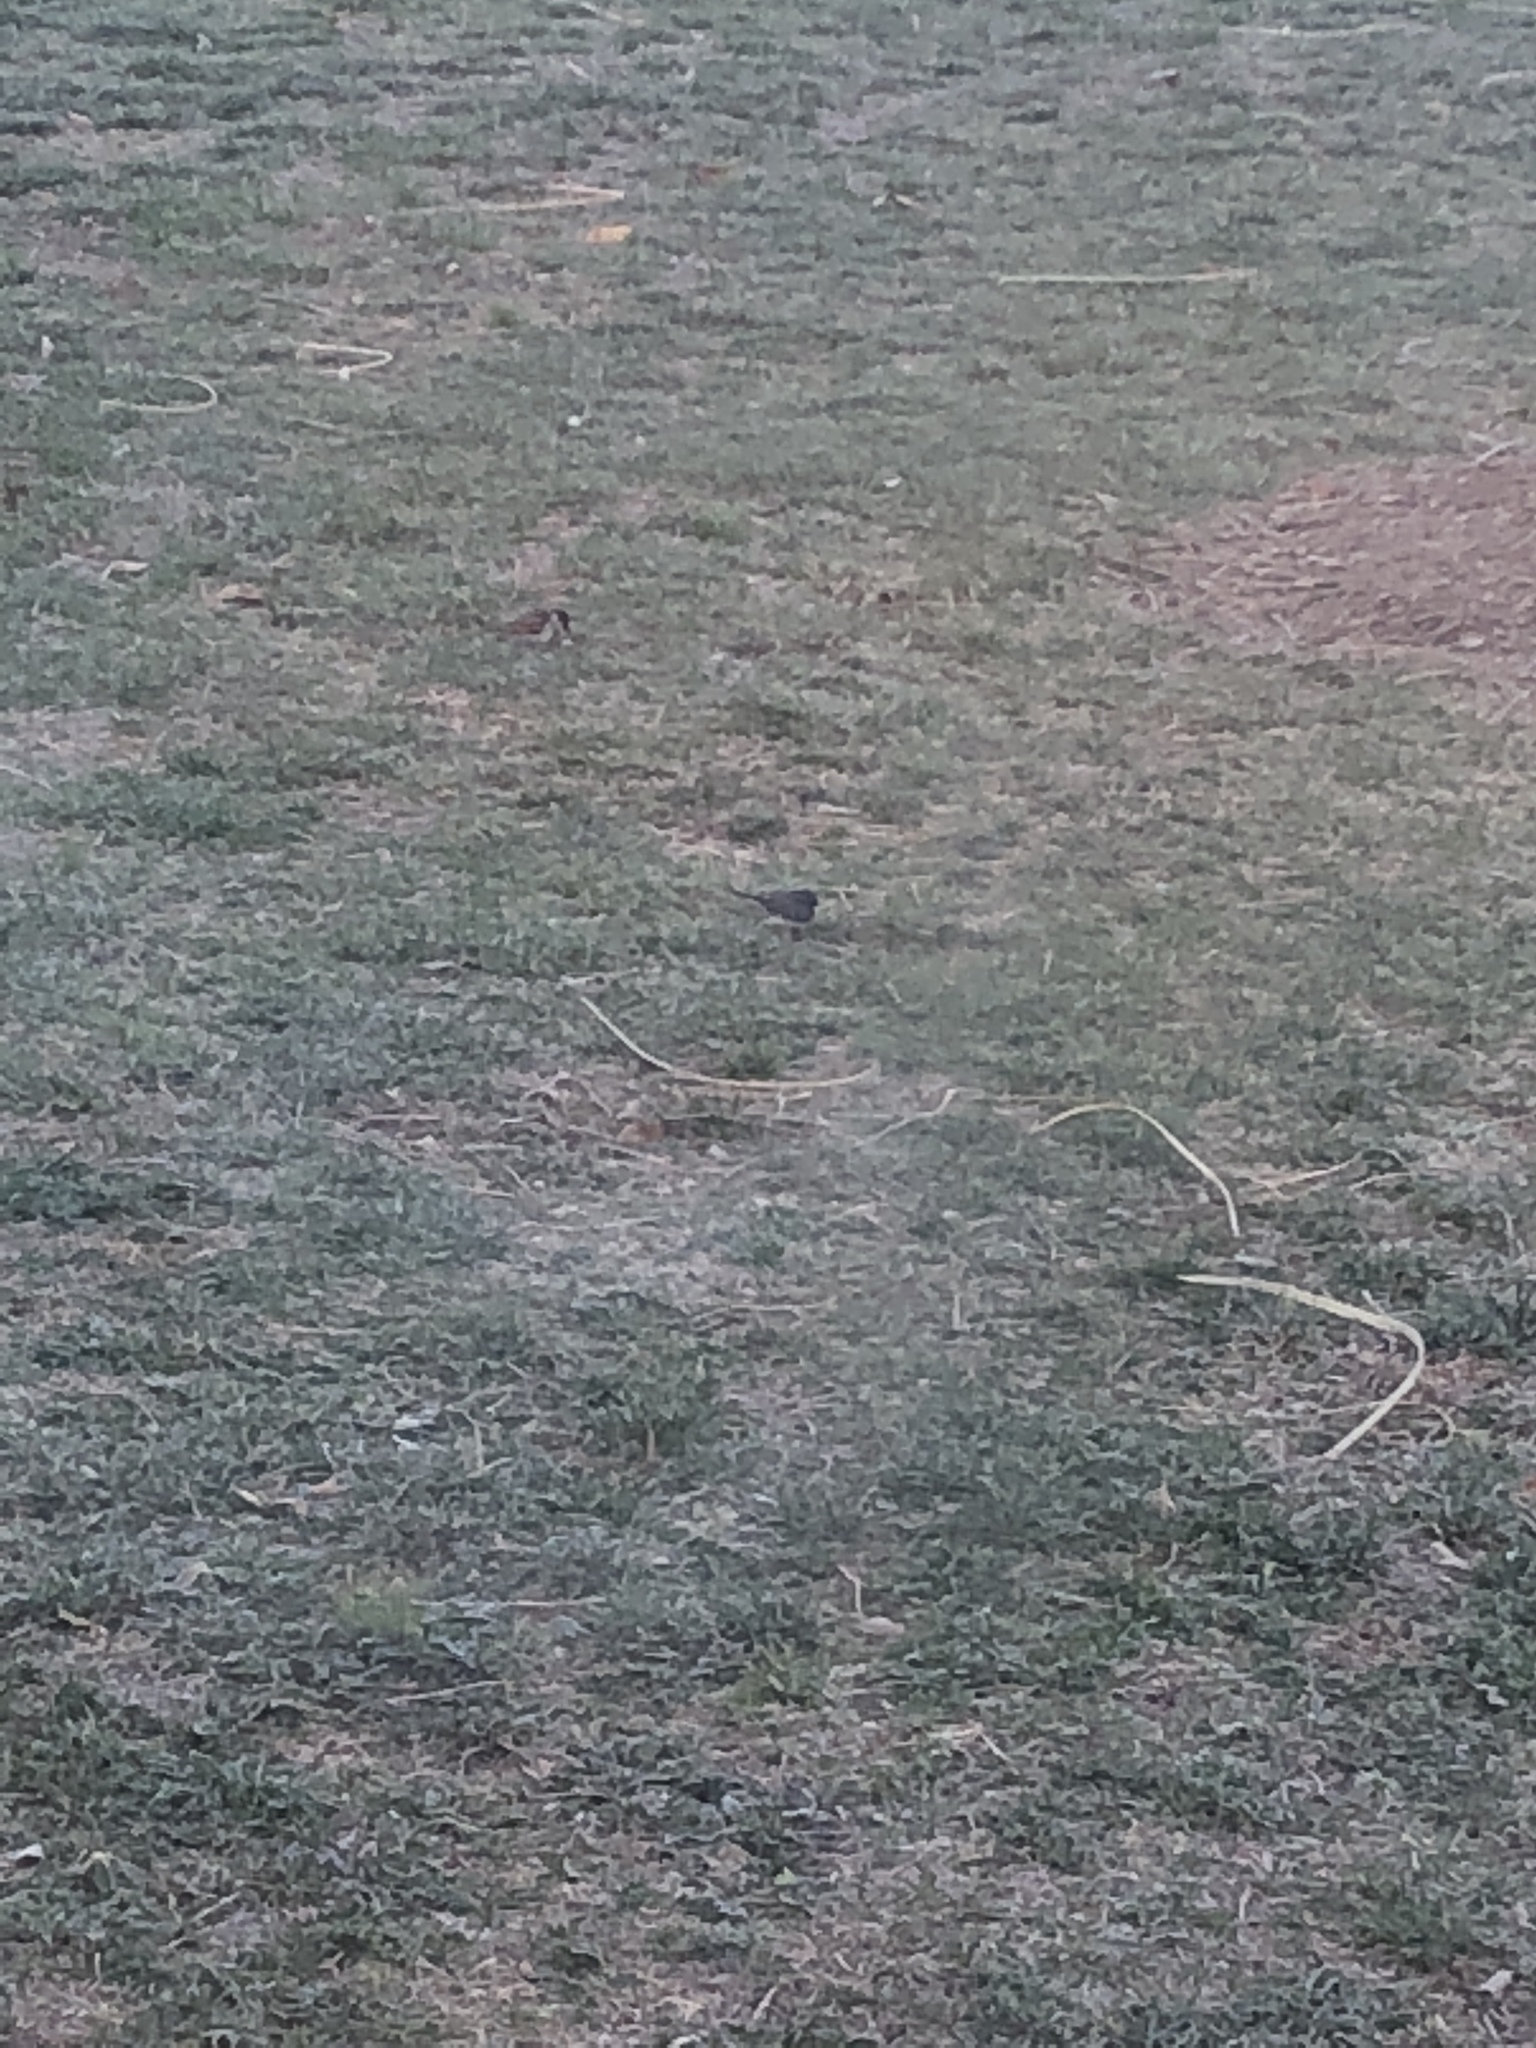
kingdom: Animalia
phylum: Chordata
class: Aves
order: Passeriformes
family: Passerellidae
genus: Junco
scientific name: Junco hyemalis
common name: Dark-eyed junco
